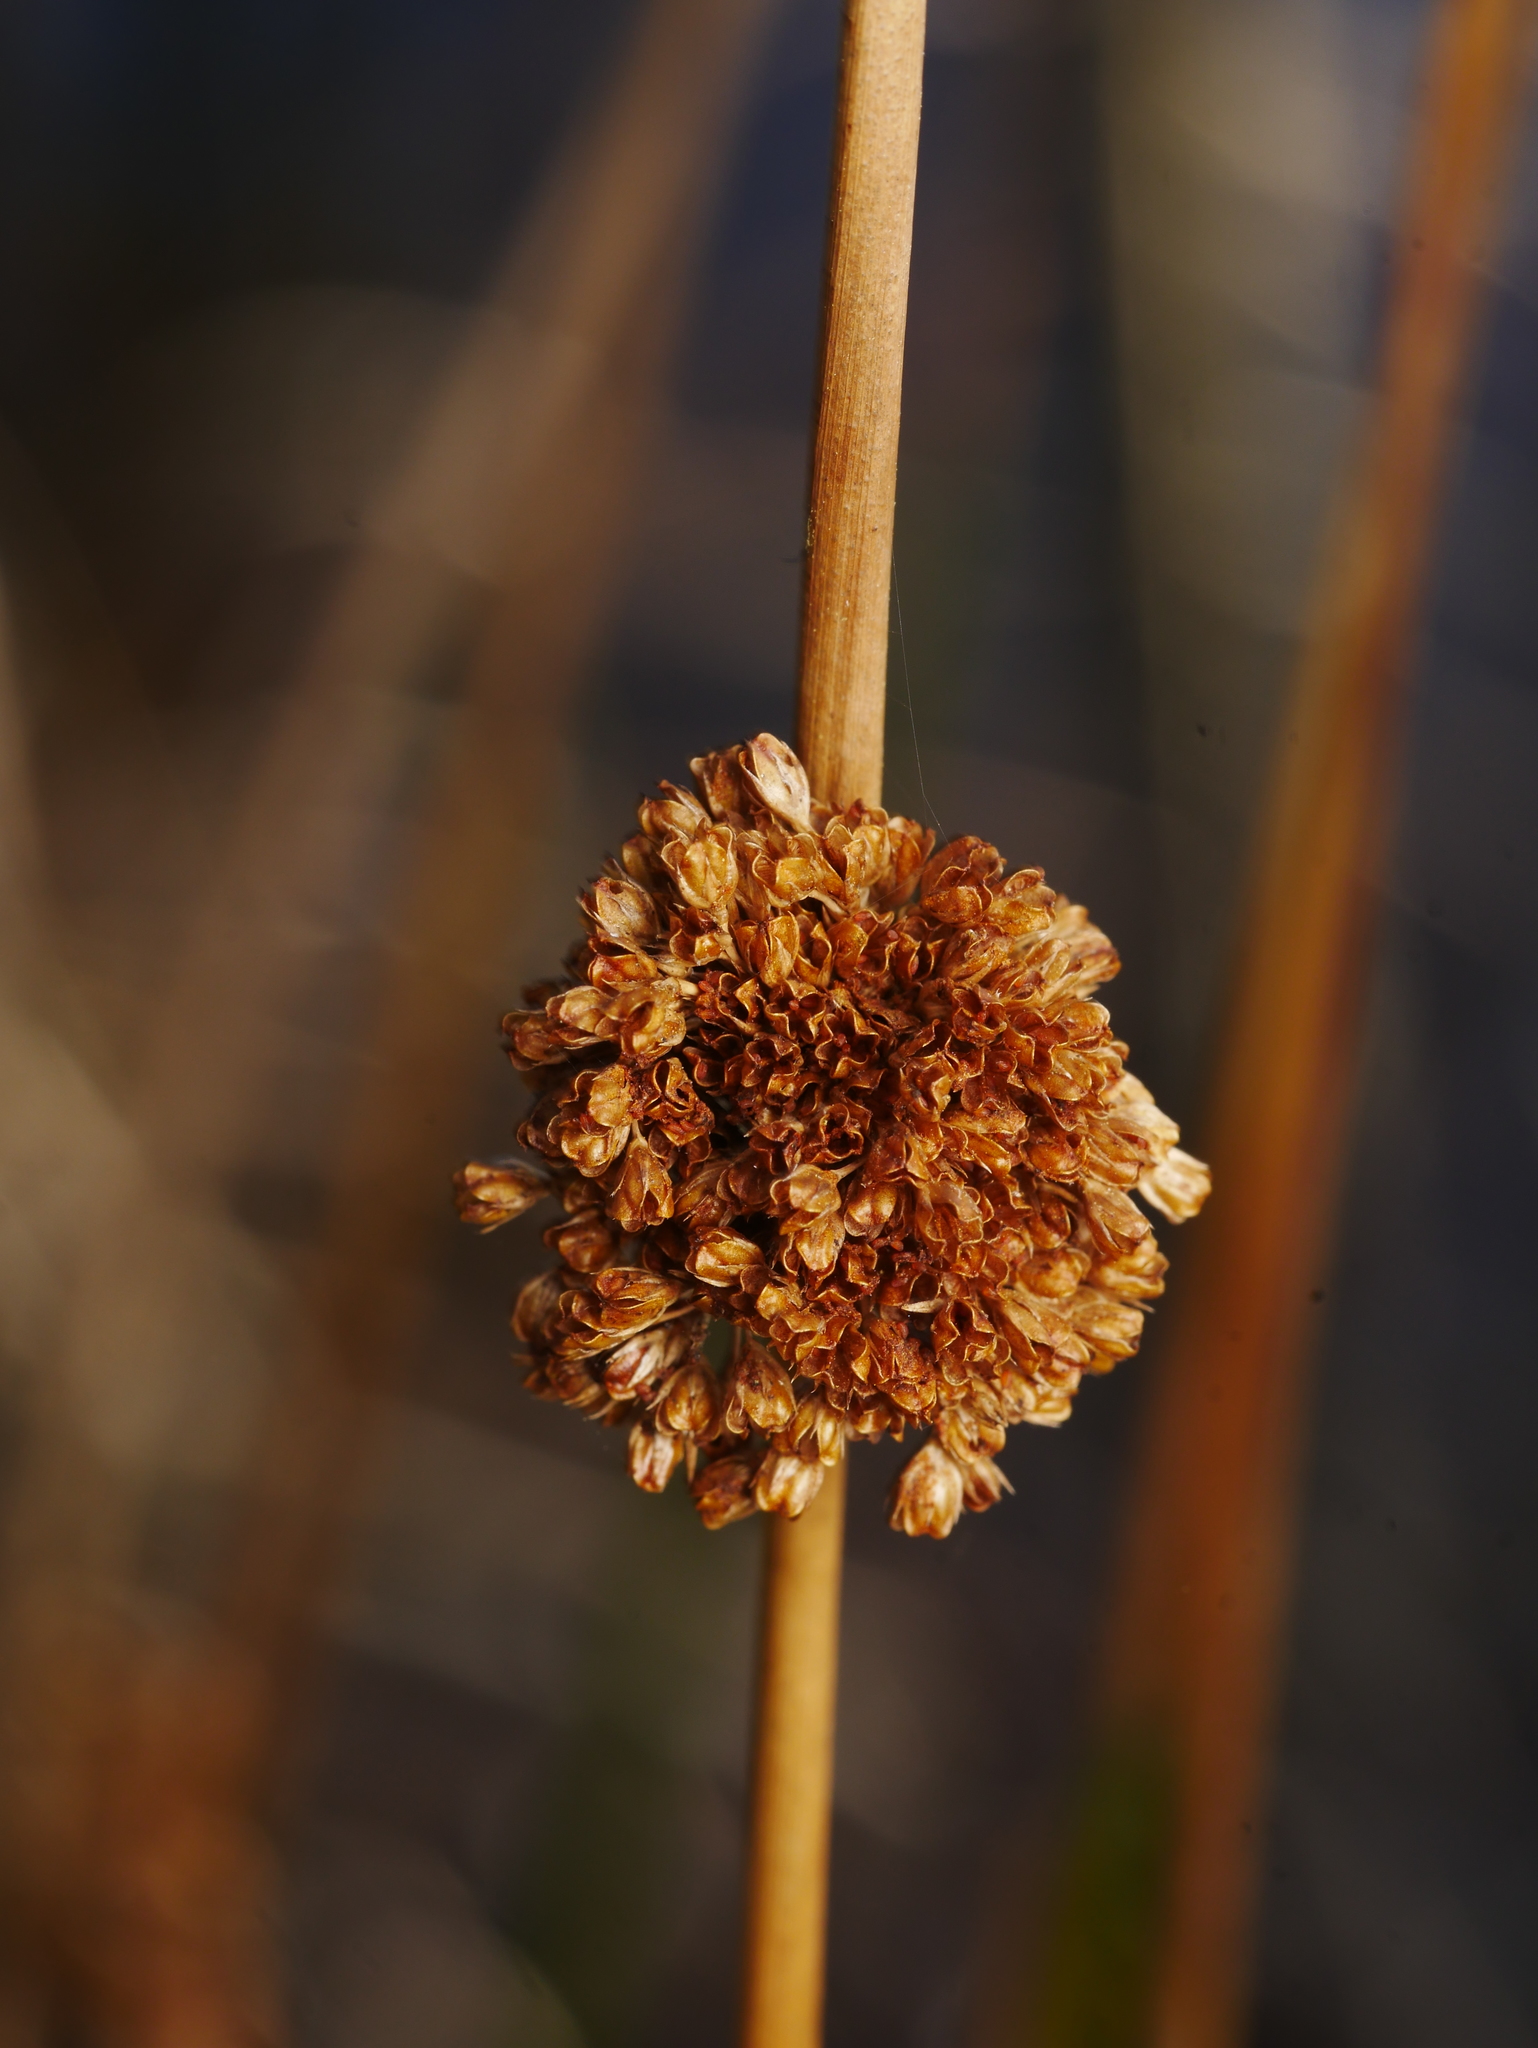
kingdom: Plantae
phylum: Tracheophyta
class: Liliopsida
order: Poales
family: Juncaceae
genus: Juncus
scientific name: Juncus conglomeratus
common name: Compact rush
